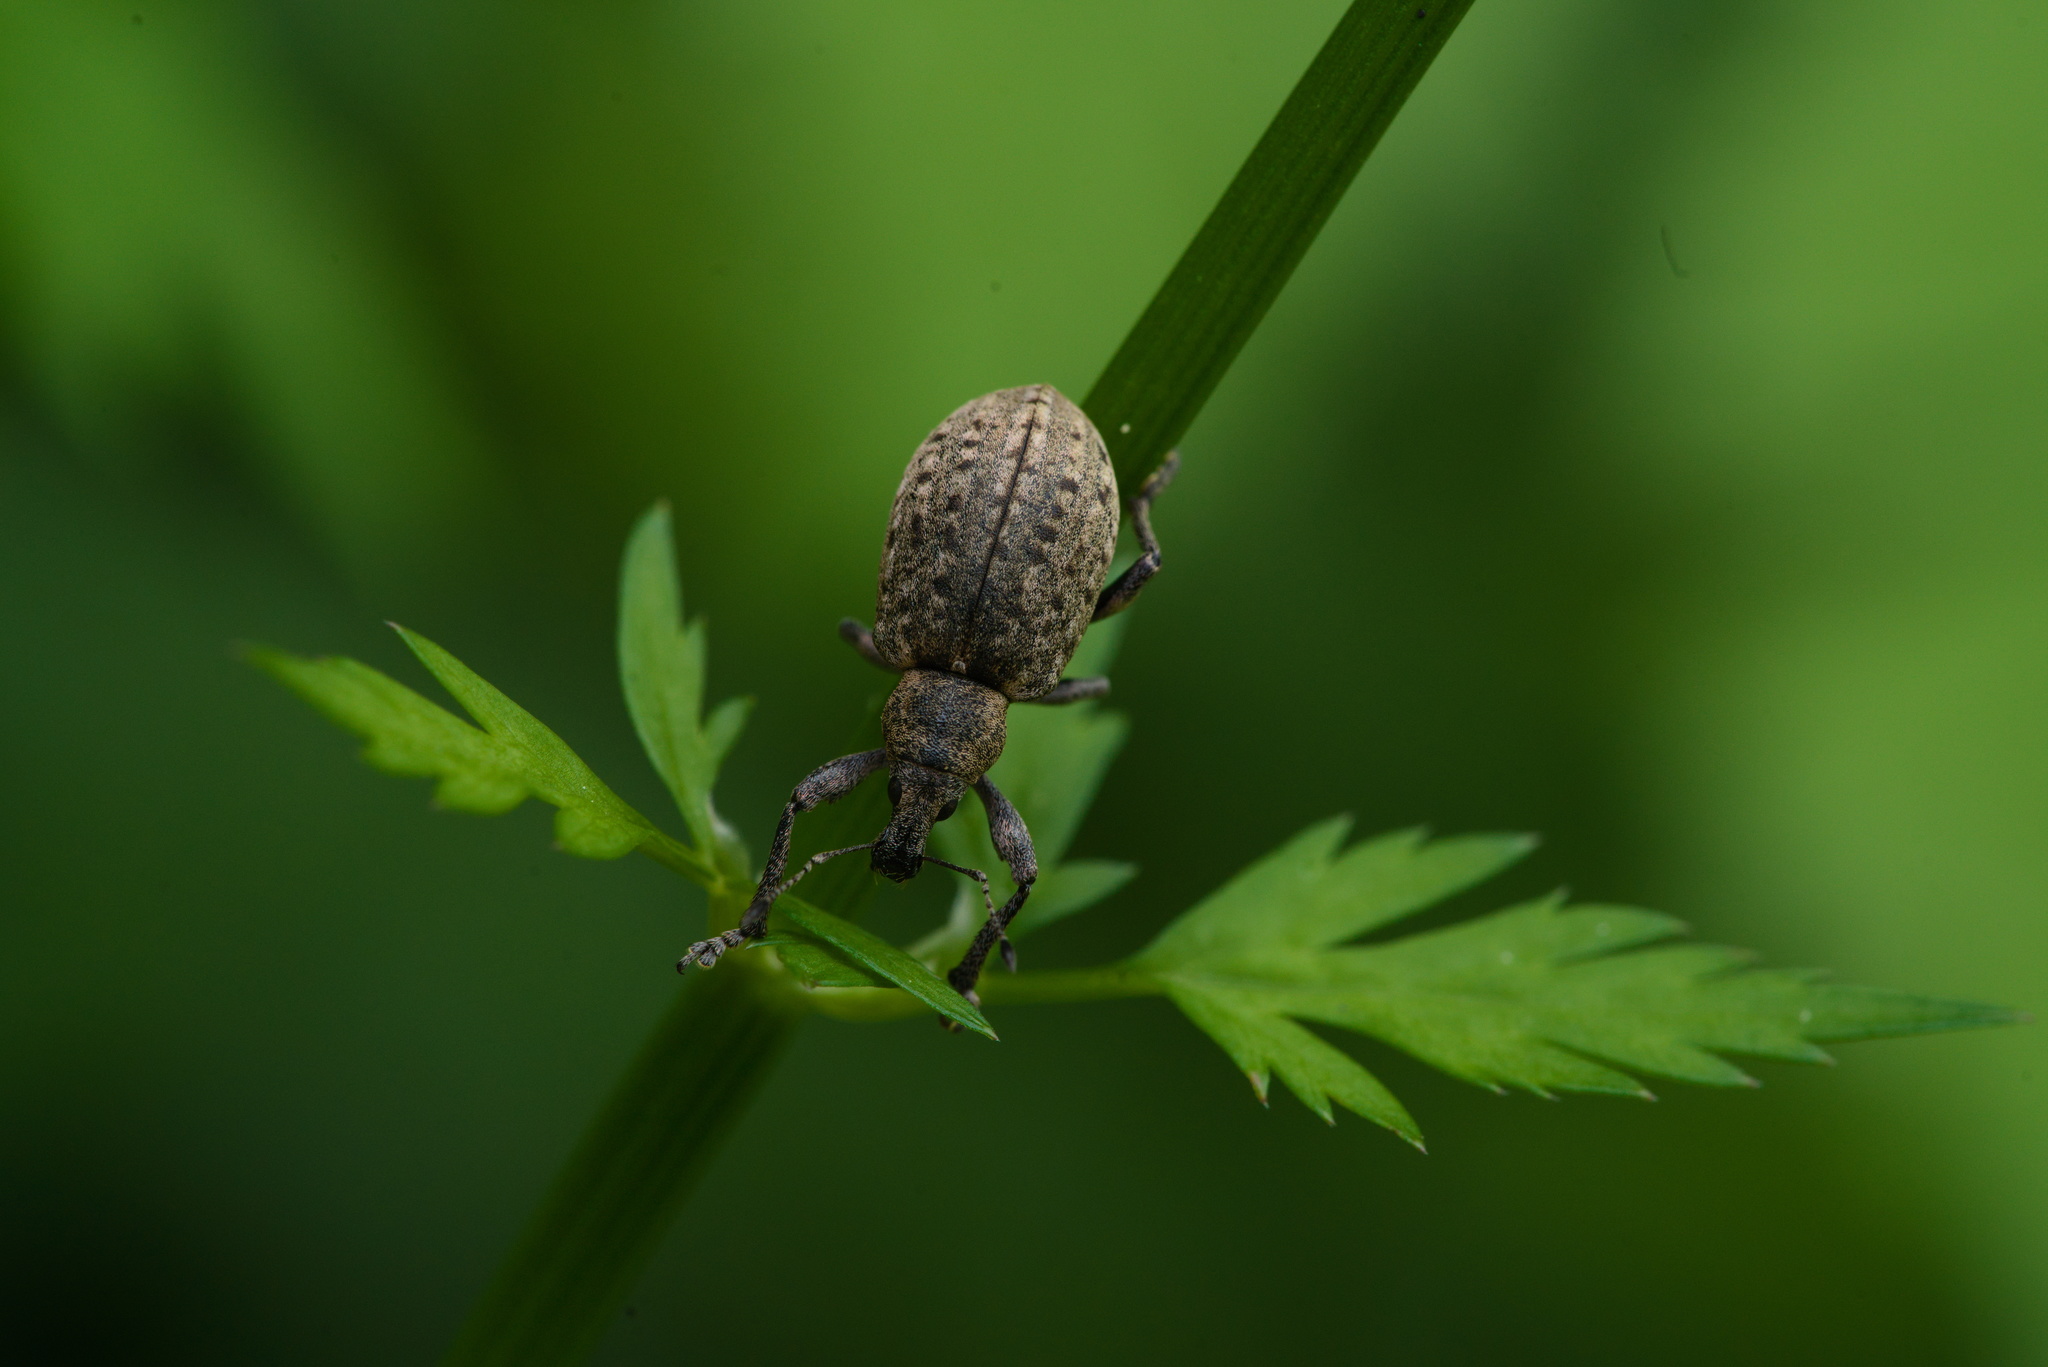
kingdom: Animalia
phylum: Arthropoda
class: Insecta
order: Coleoptera
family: Curculionidae
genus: Liophloeus
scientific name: Liophloeus tessulatus
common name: Weevil
